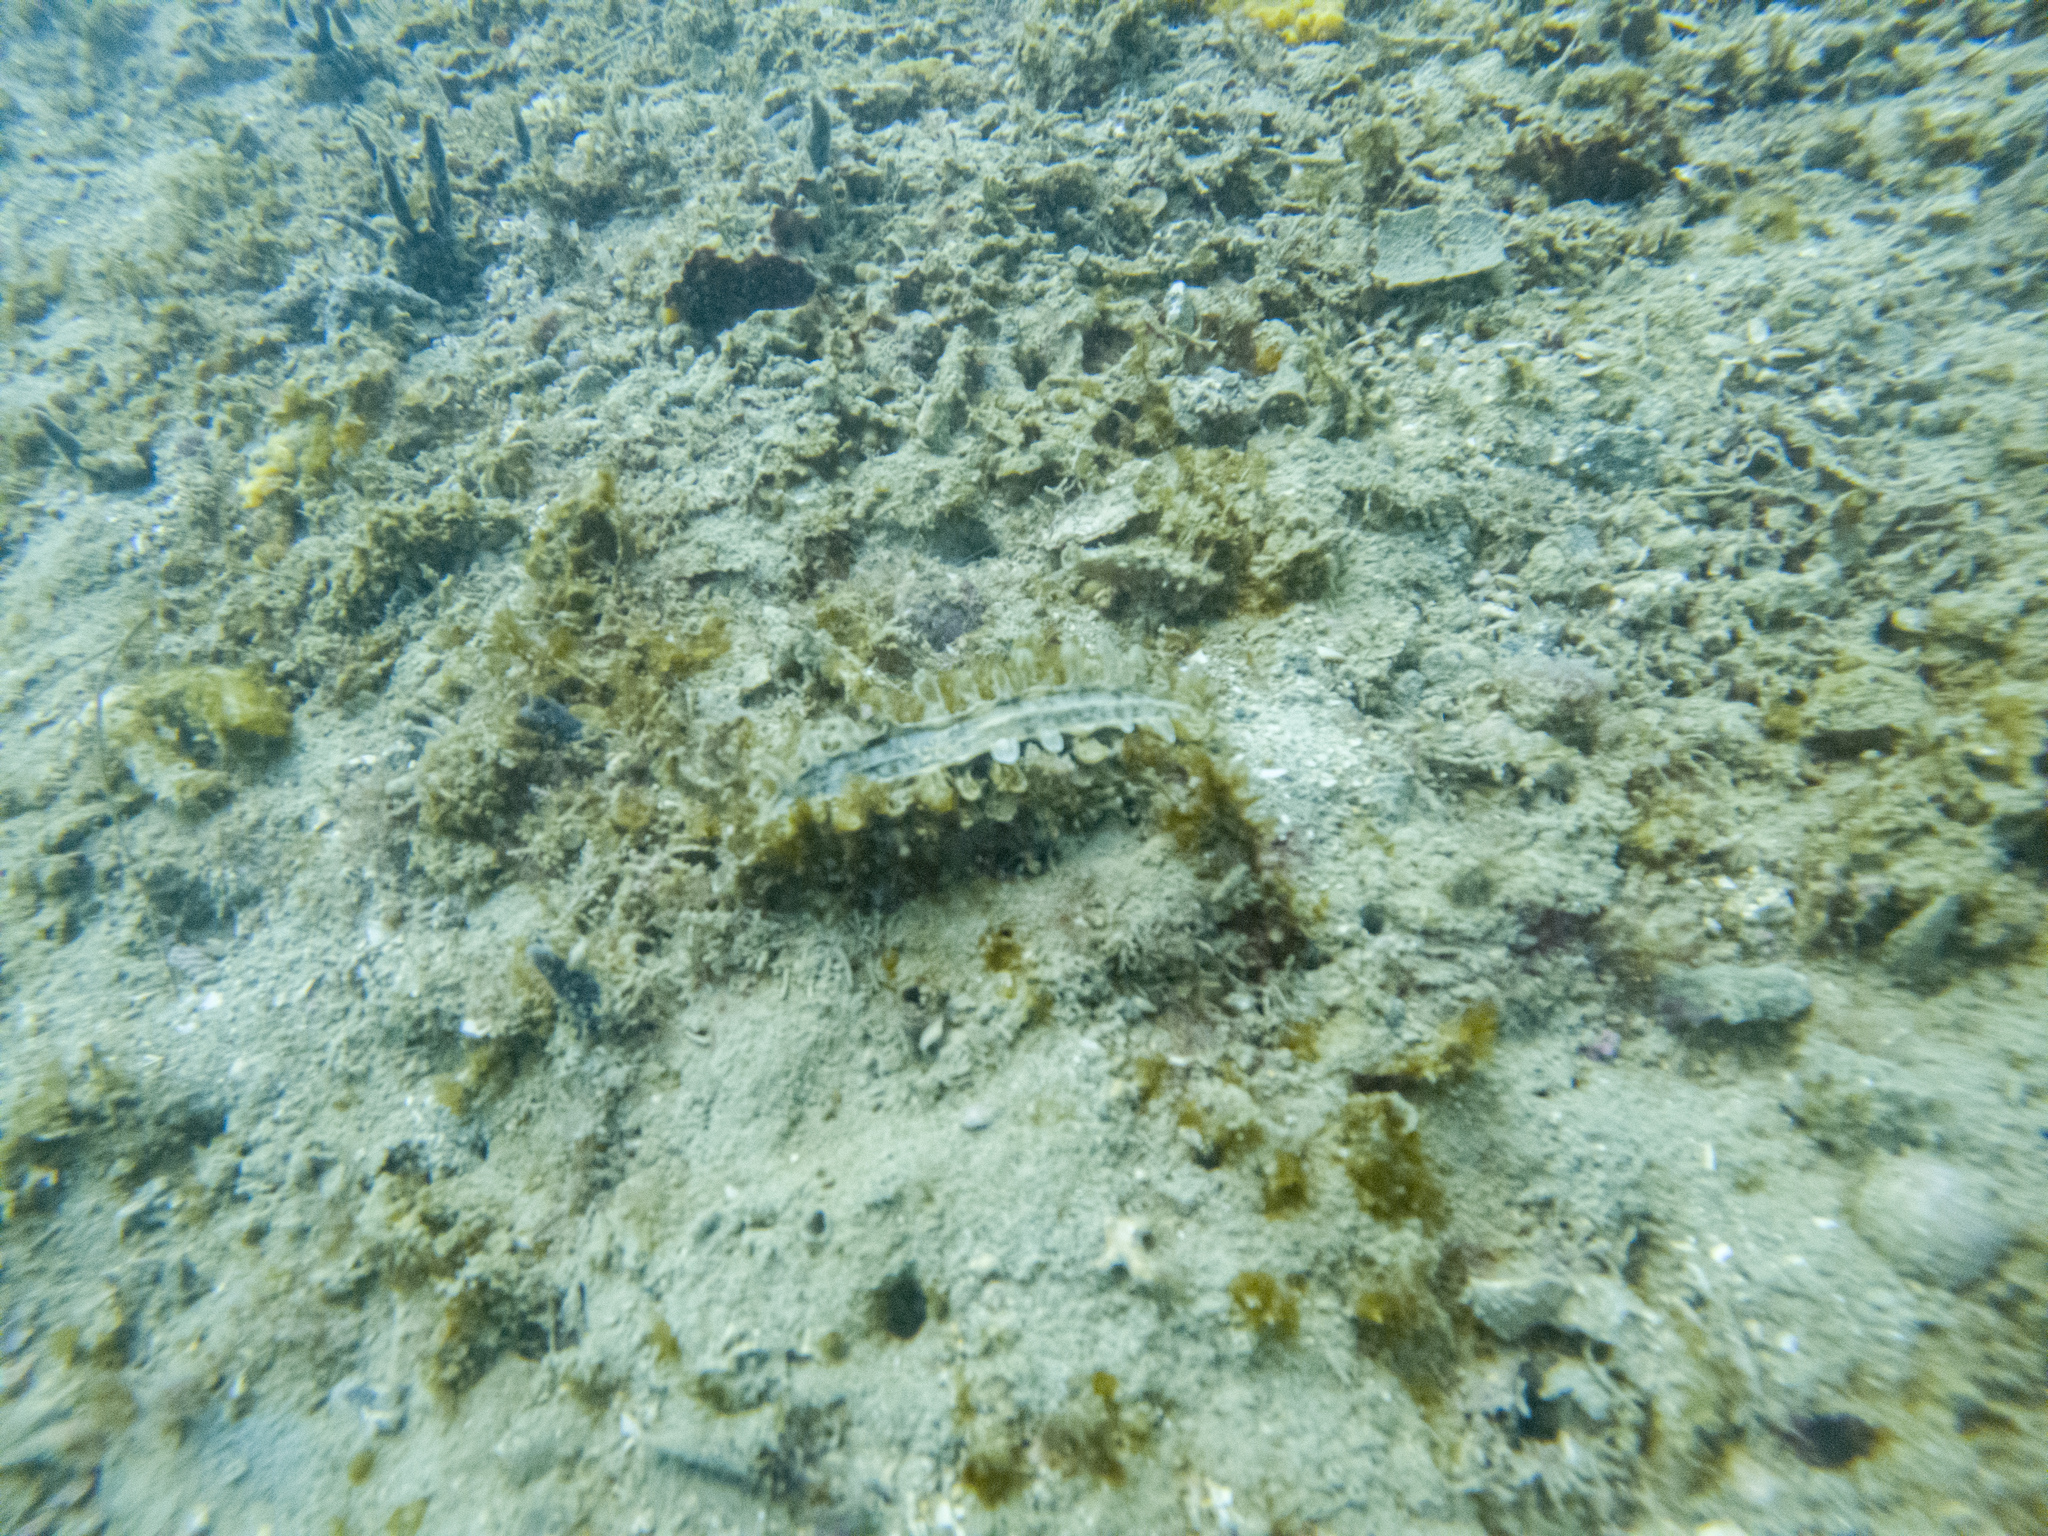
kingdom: Animalia
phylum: Mollusca
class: Bivalvia
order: Ostreida
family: Pinnidae
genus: Atrina
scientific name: Atrina zelandica
